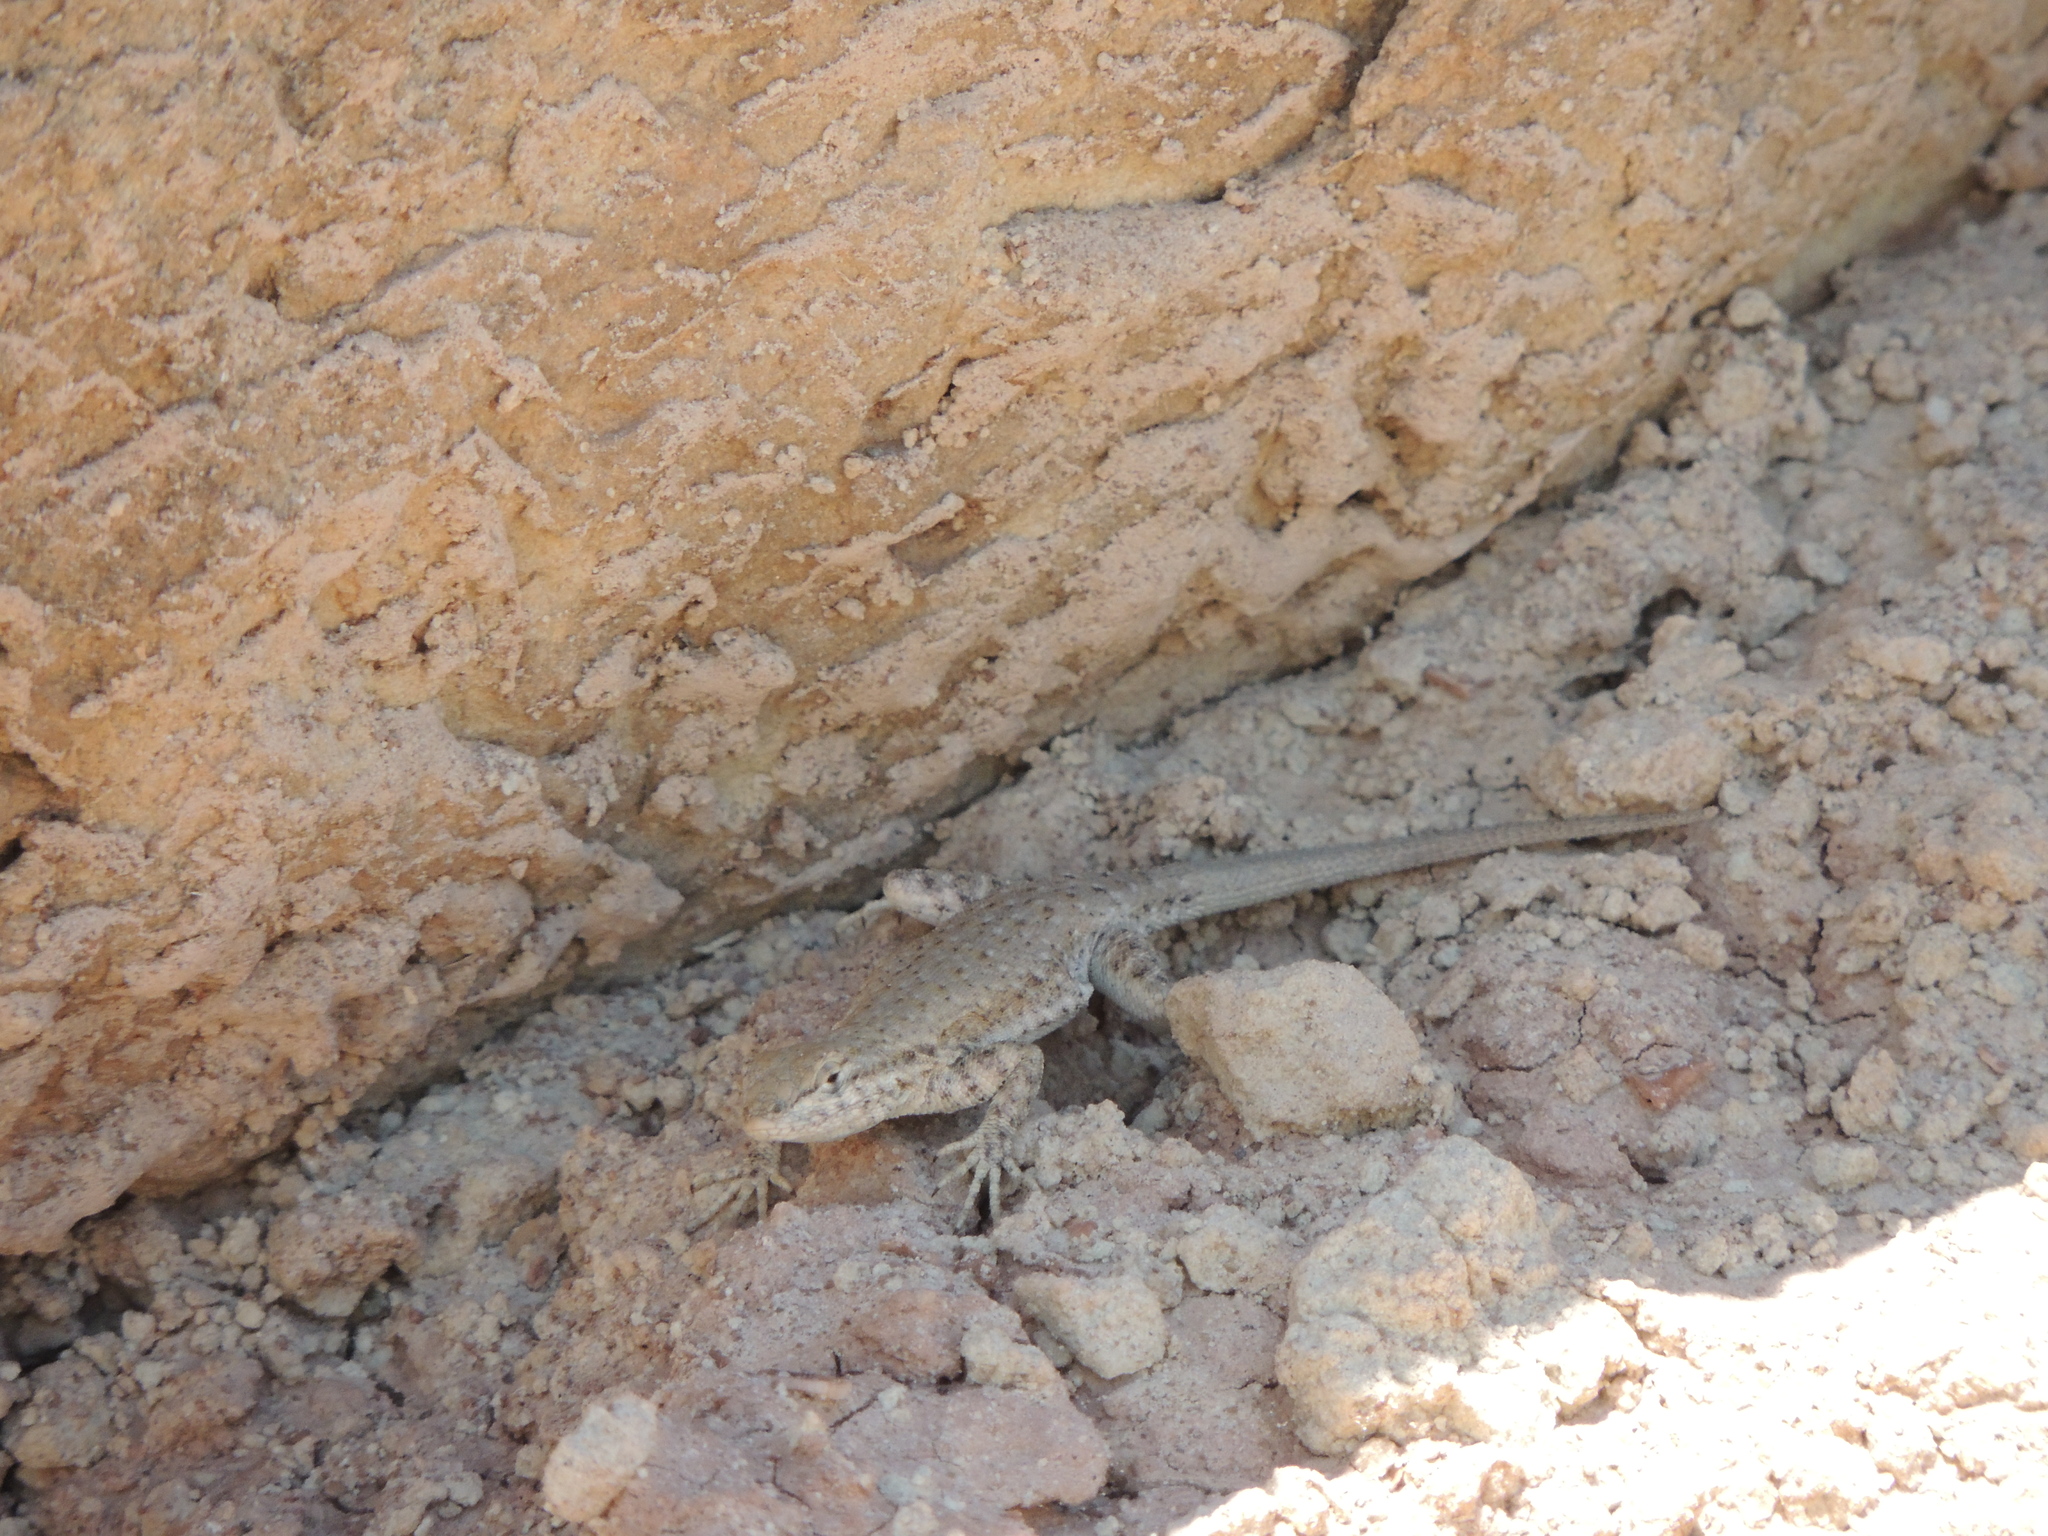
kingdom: Animalia
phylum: Chordata
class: Squamata
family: Phrynosomatidae
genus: Uta
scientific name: Uta stansburiana
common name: Side-blotched lizard
